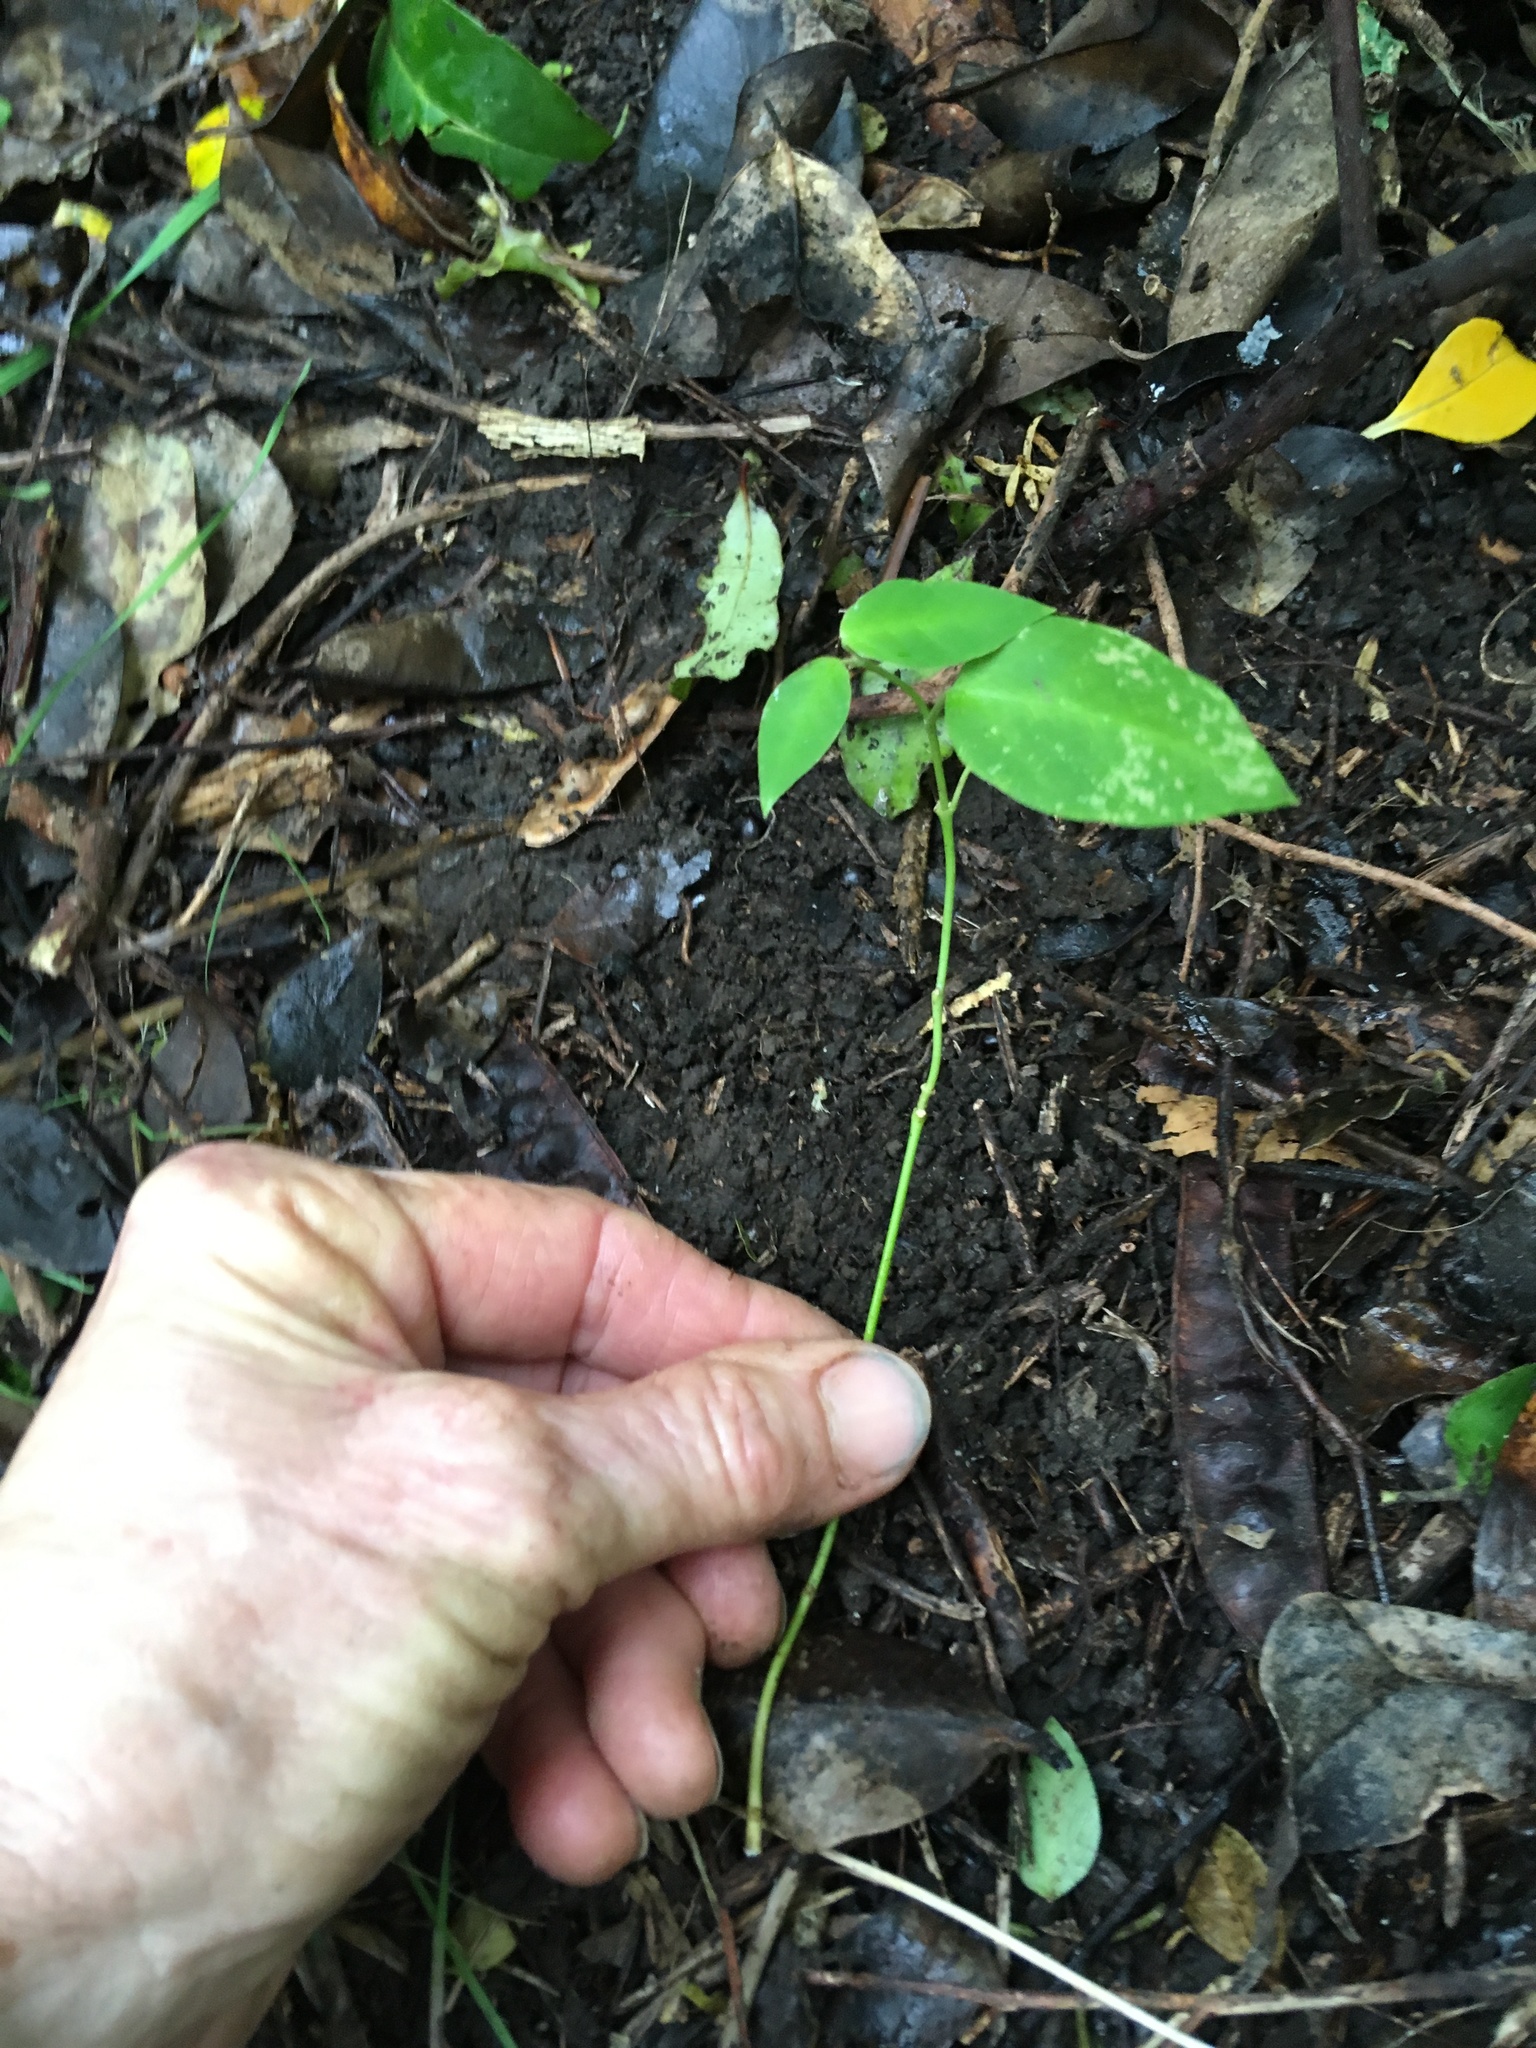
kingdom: Plantae
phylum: Tracheophyta
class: Magnoliopsida
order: Gentianales
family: Apocynaceae
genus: Araujia
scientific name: Araujia sericifera
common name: White bladderflower
